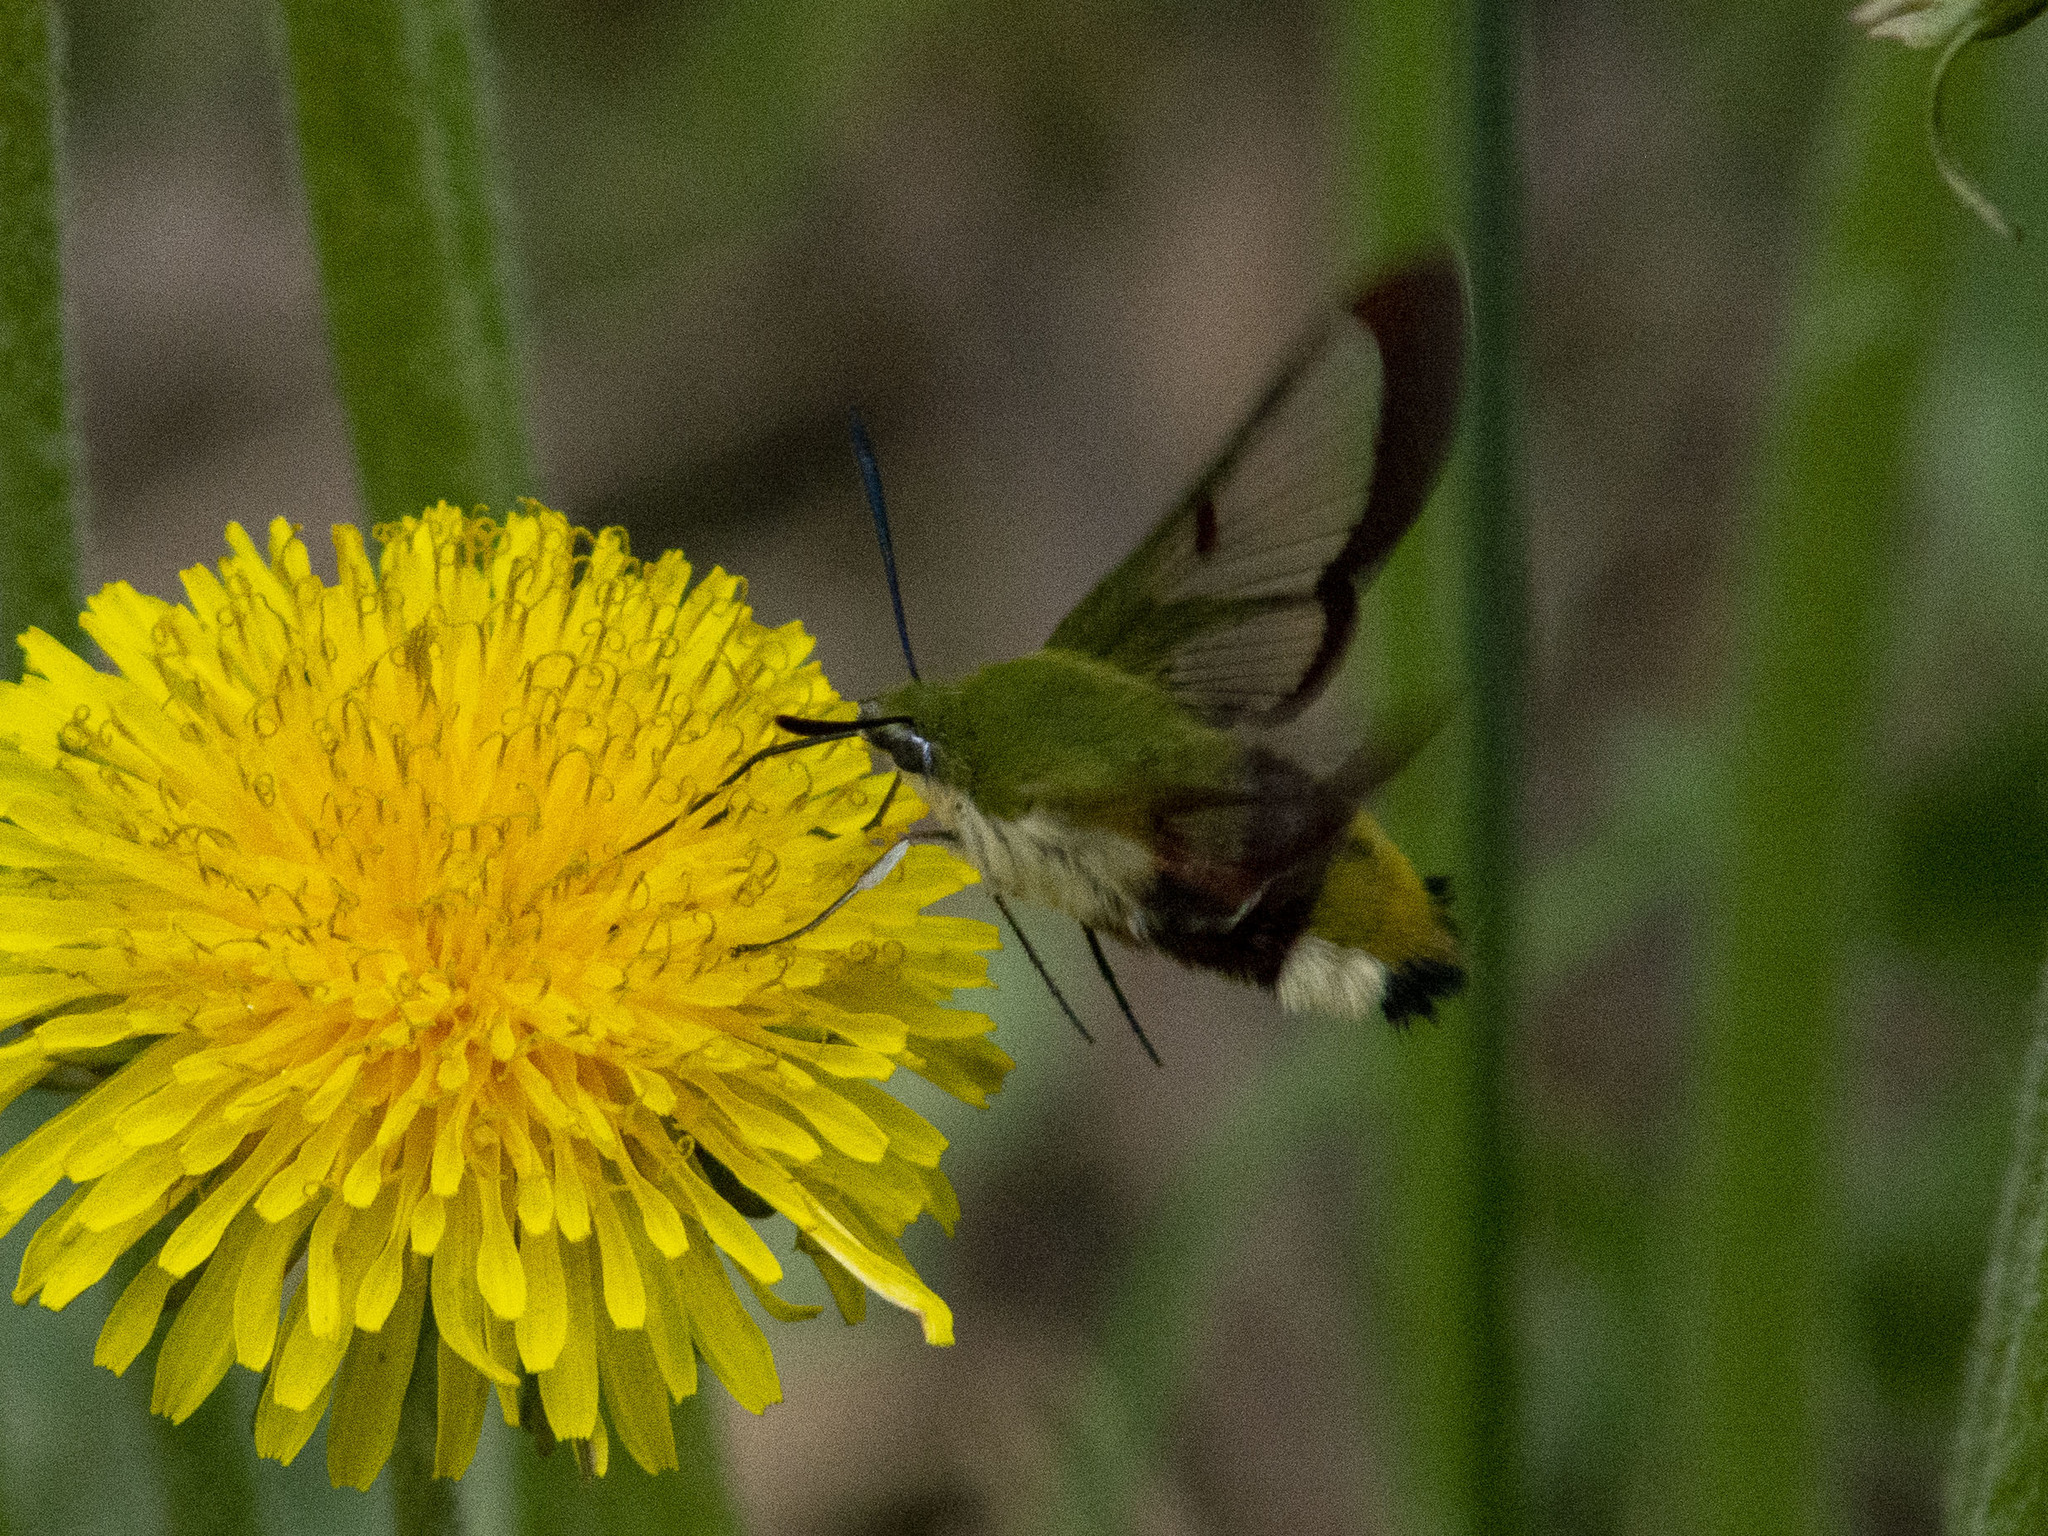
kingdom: Animalia
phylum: Arthropoda
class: Insecta
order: Lepidoptera
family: Sphingidae
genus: Hemaris
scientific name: Hemaris fuciformis
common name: Broad-bordered bee hawk-moth
